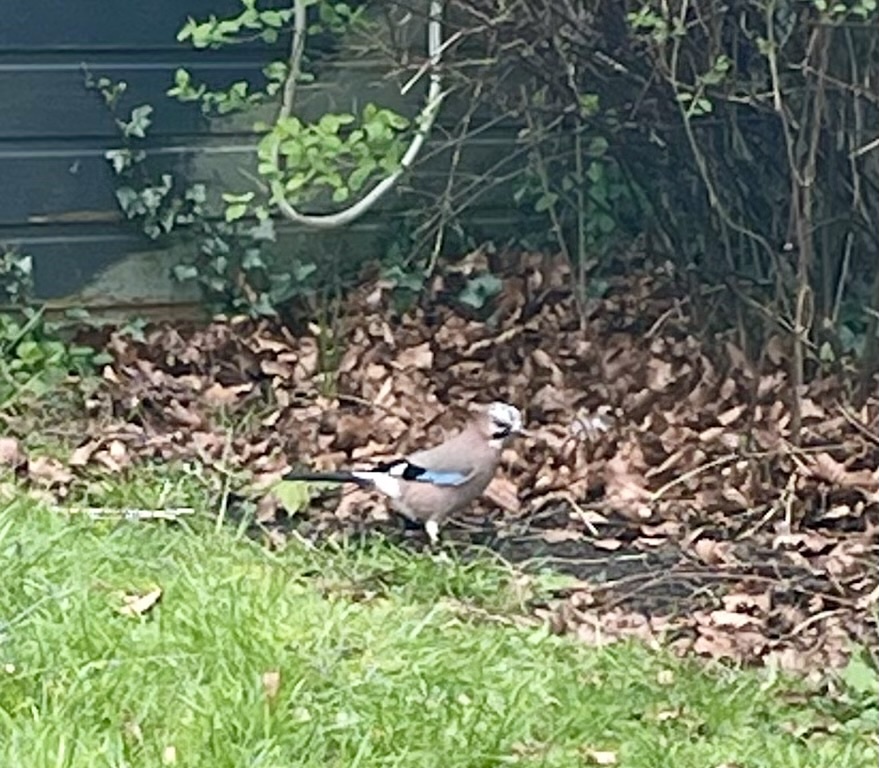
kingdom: Animalia
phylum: Chordata
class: Aves
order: Passeriformes
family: Corvidae
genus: Garrulus
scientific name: Garrulus glandarius
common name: Eurasian jay
